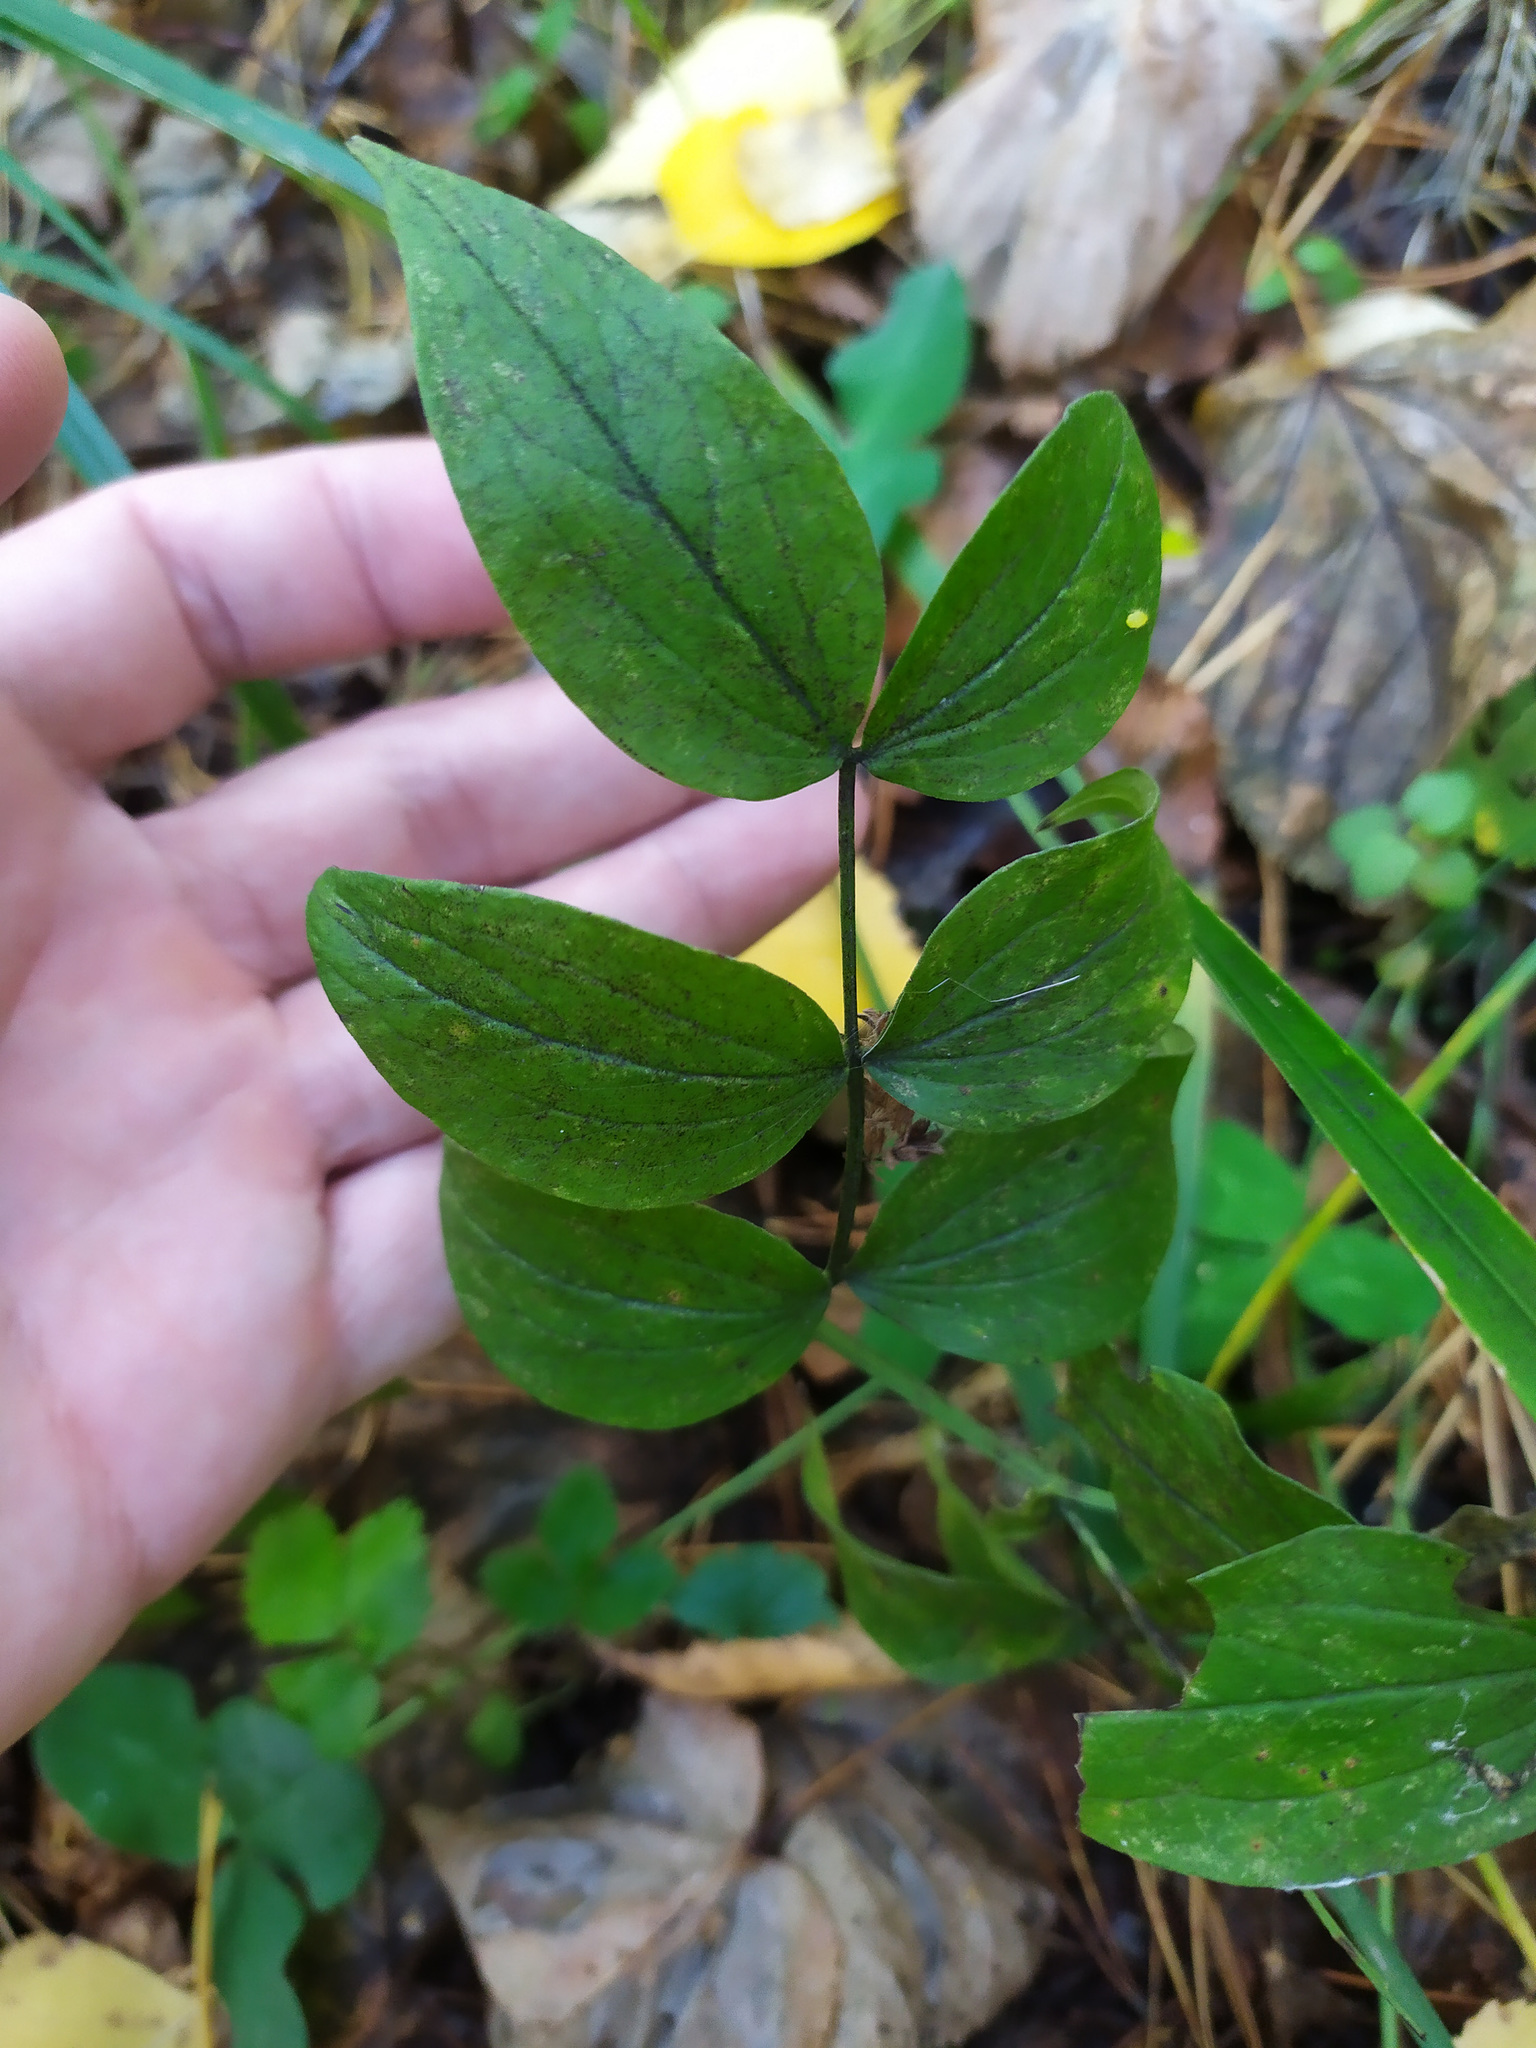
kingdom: Plantae
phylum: Tracheophyta
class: Magnoliopsida
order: Fabales
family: Fabaceae
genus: Lathyrus
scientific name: Lathyrus vernus
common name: Spring pea
